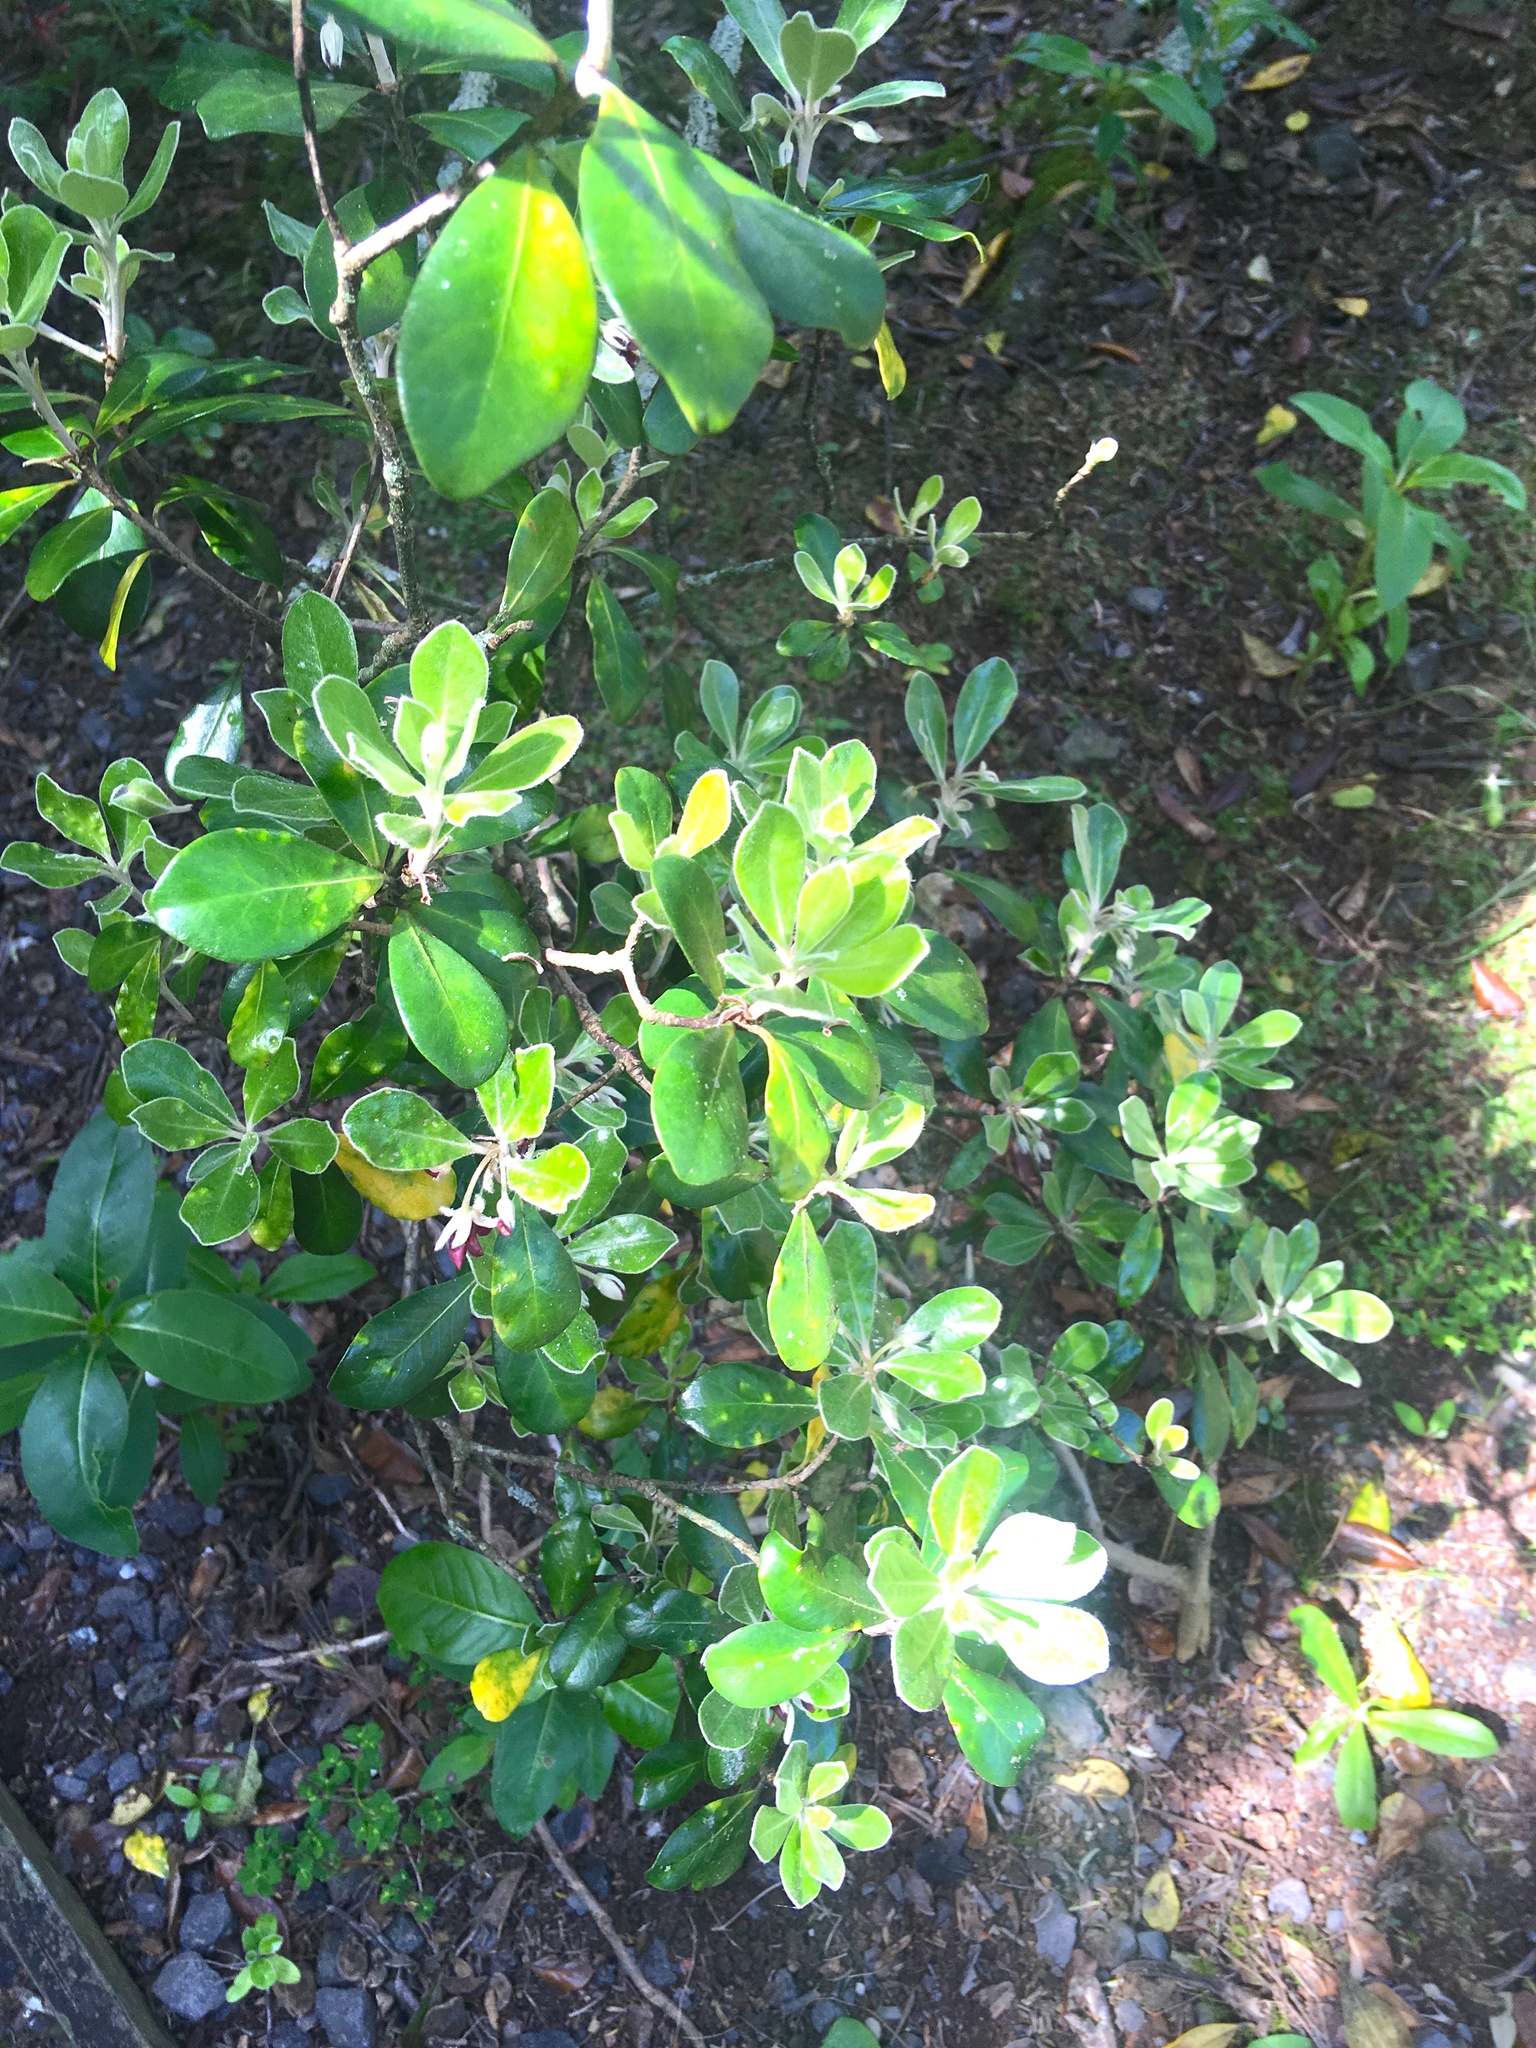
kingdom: Plantae
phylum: Tracheophyta
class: Magnoliopsida
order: Apiales
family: Pittosporaceae
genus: Pittosporum
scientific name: Pittosporum crassifolium
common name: Karo
